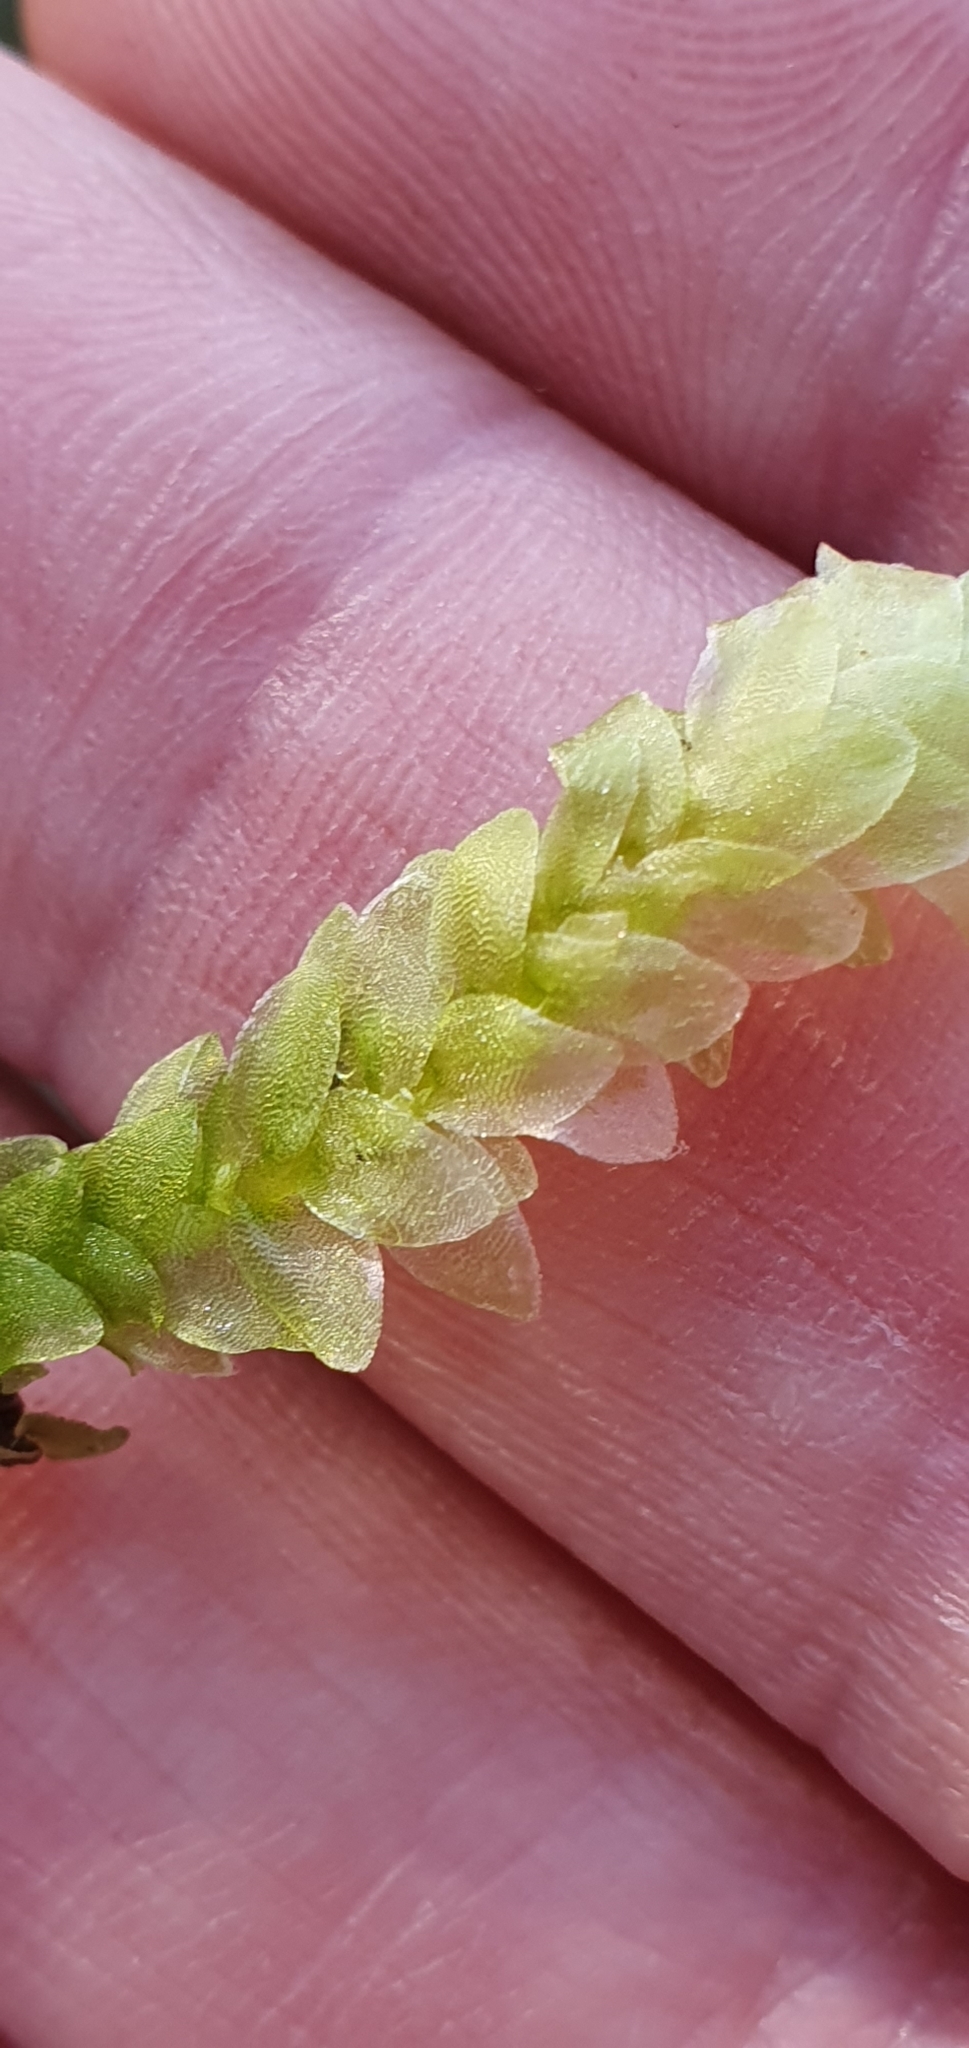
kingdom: Plantae
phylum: Bryophyta
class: Bryopsida
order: Hookeriales
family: Hookeriaceae
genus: Hookeria
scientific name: Hookeria lucens
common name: Shining hookeria
